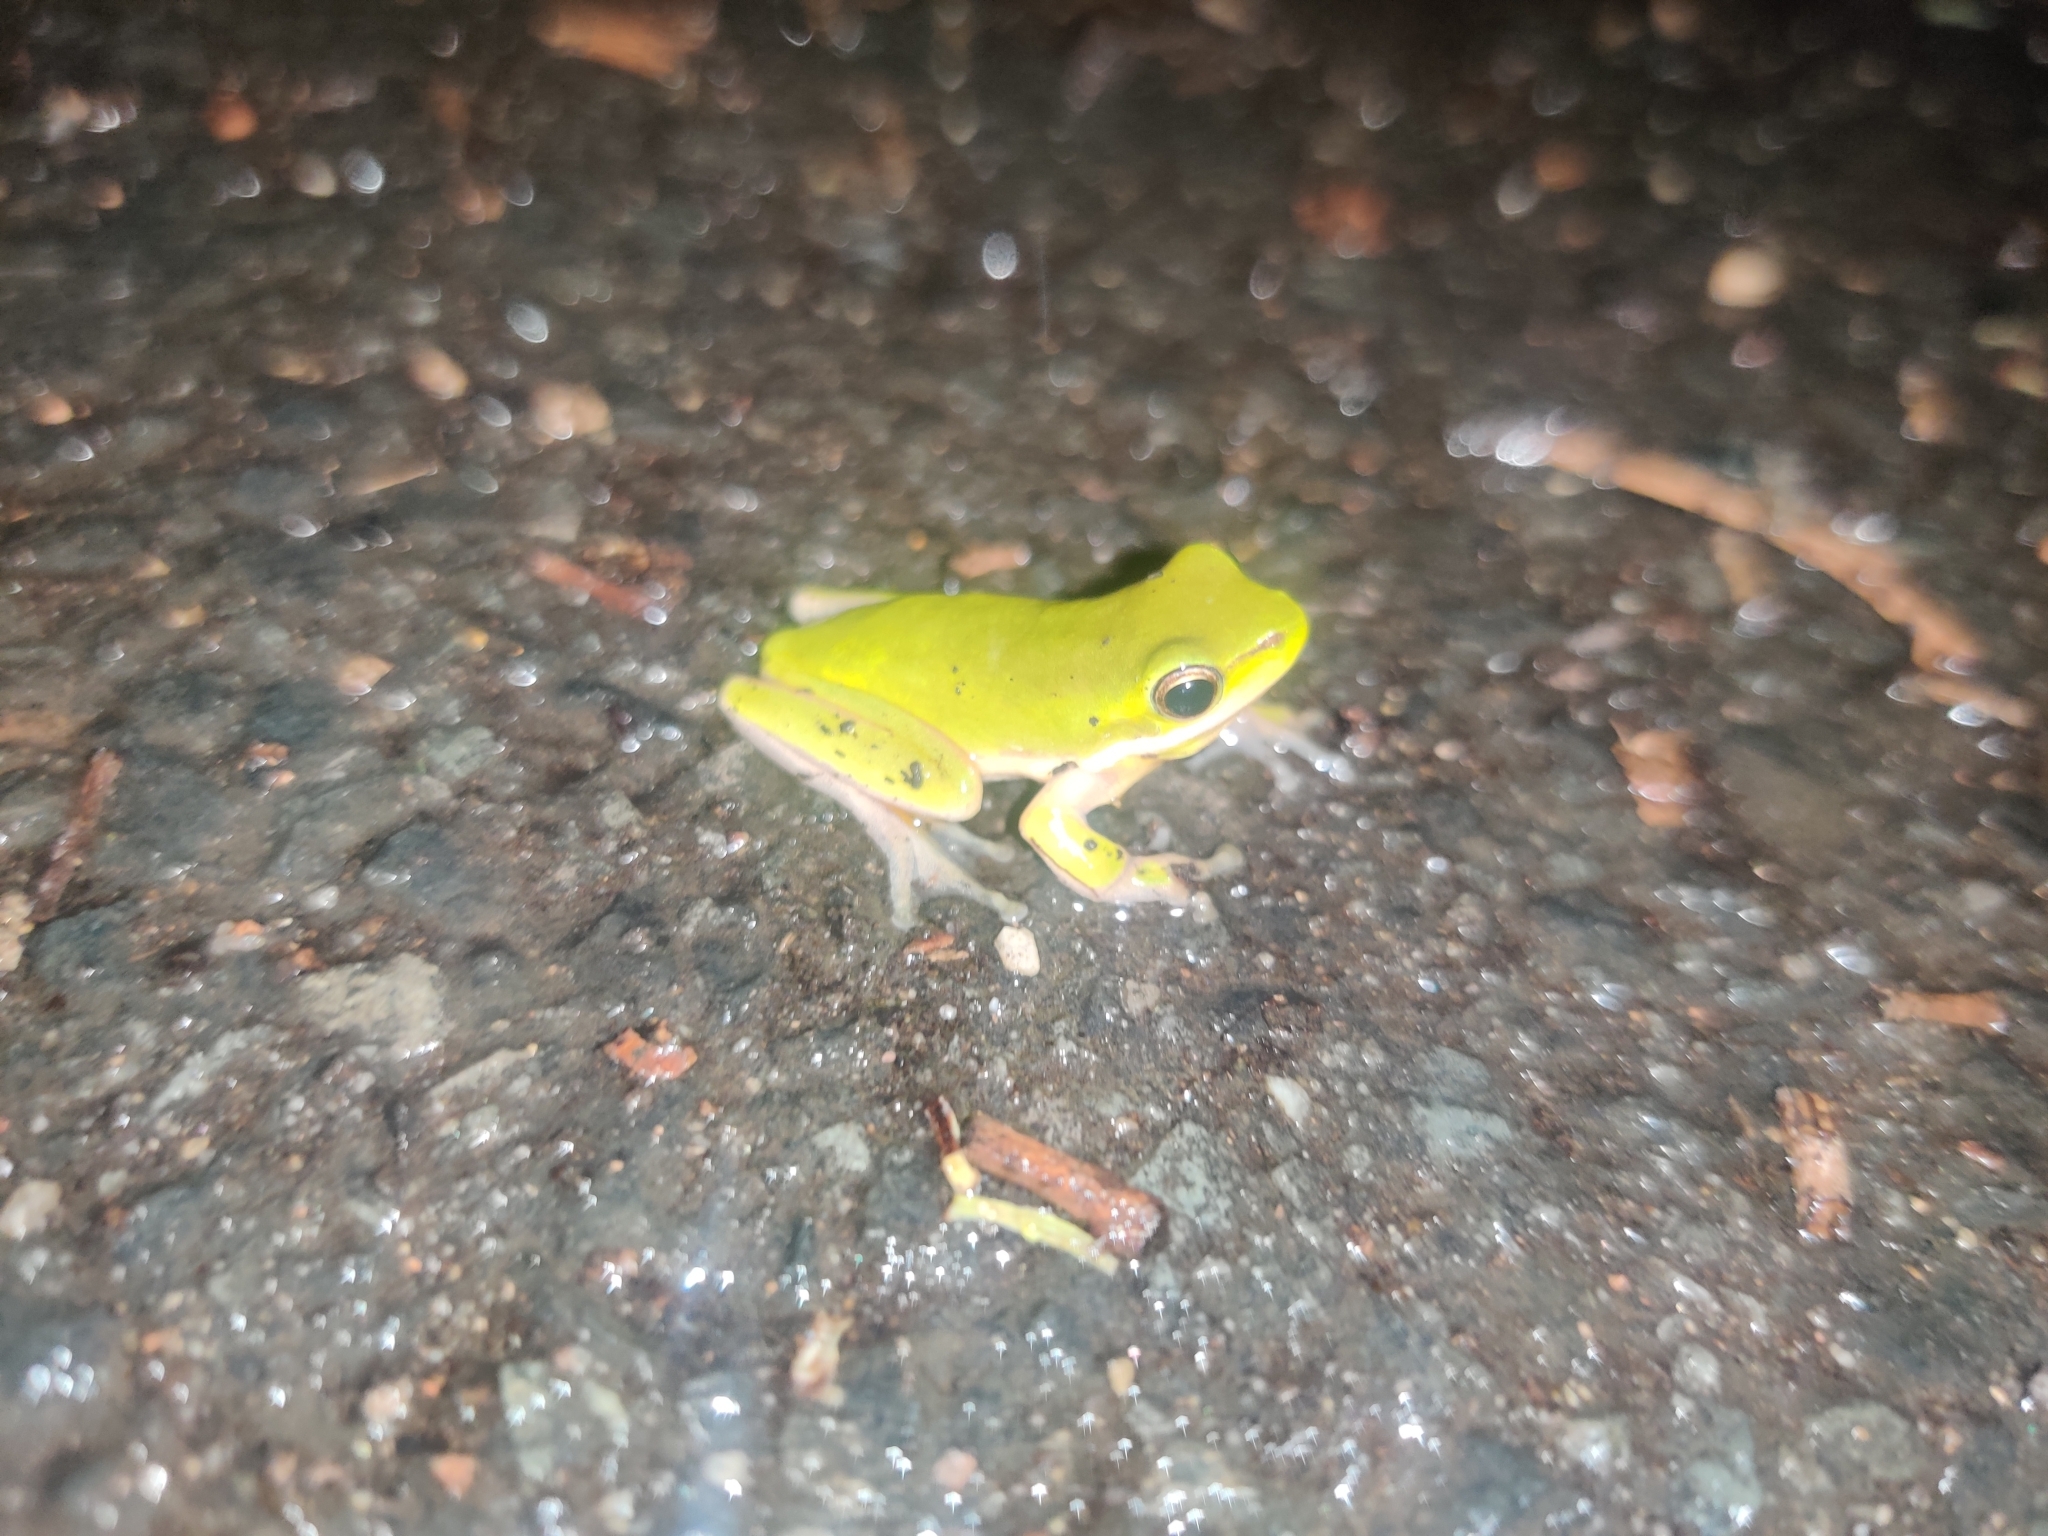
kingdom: Animalia
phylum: Chordata
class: Amphibia
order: Anura
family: Pelodryadidae
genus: Litoria
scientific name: Litoria fallax
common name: Eastern dwarf treefrog
